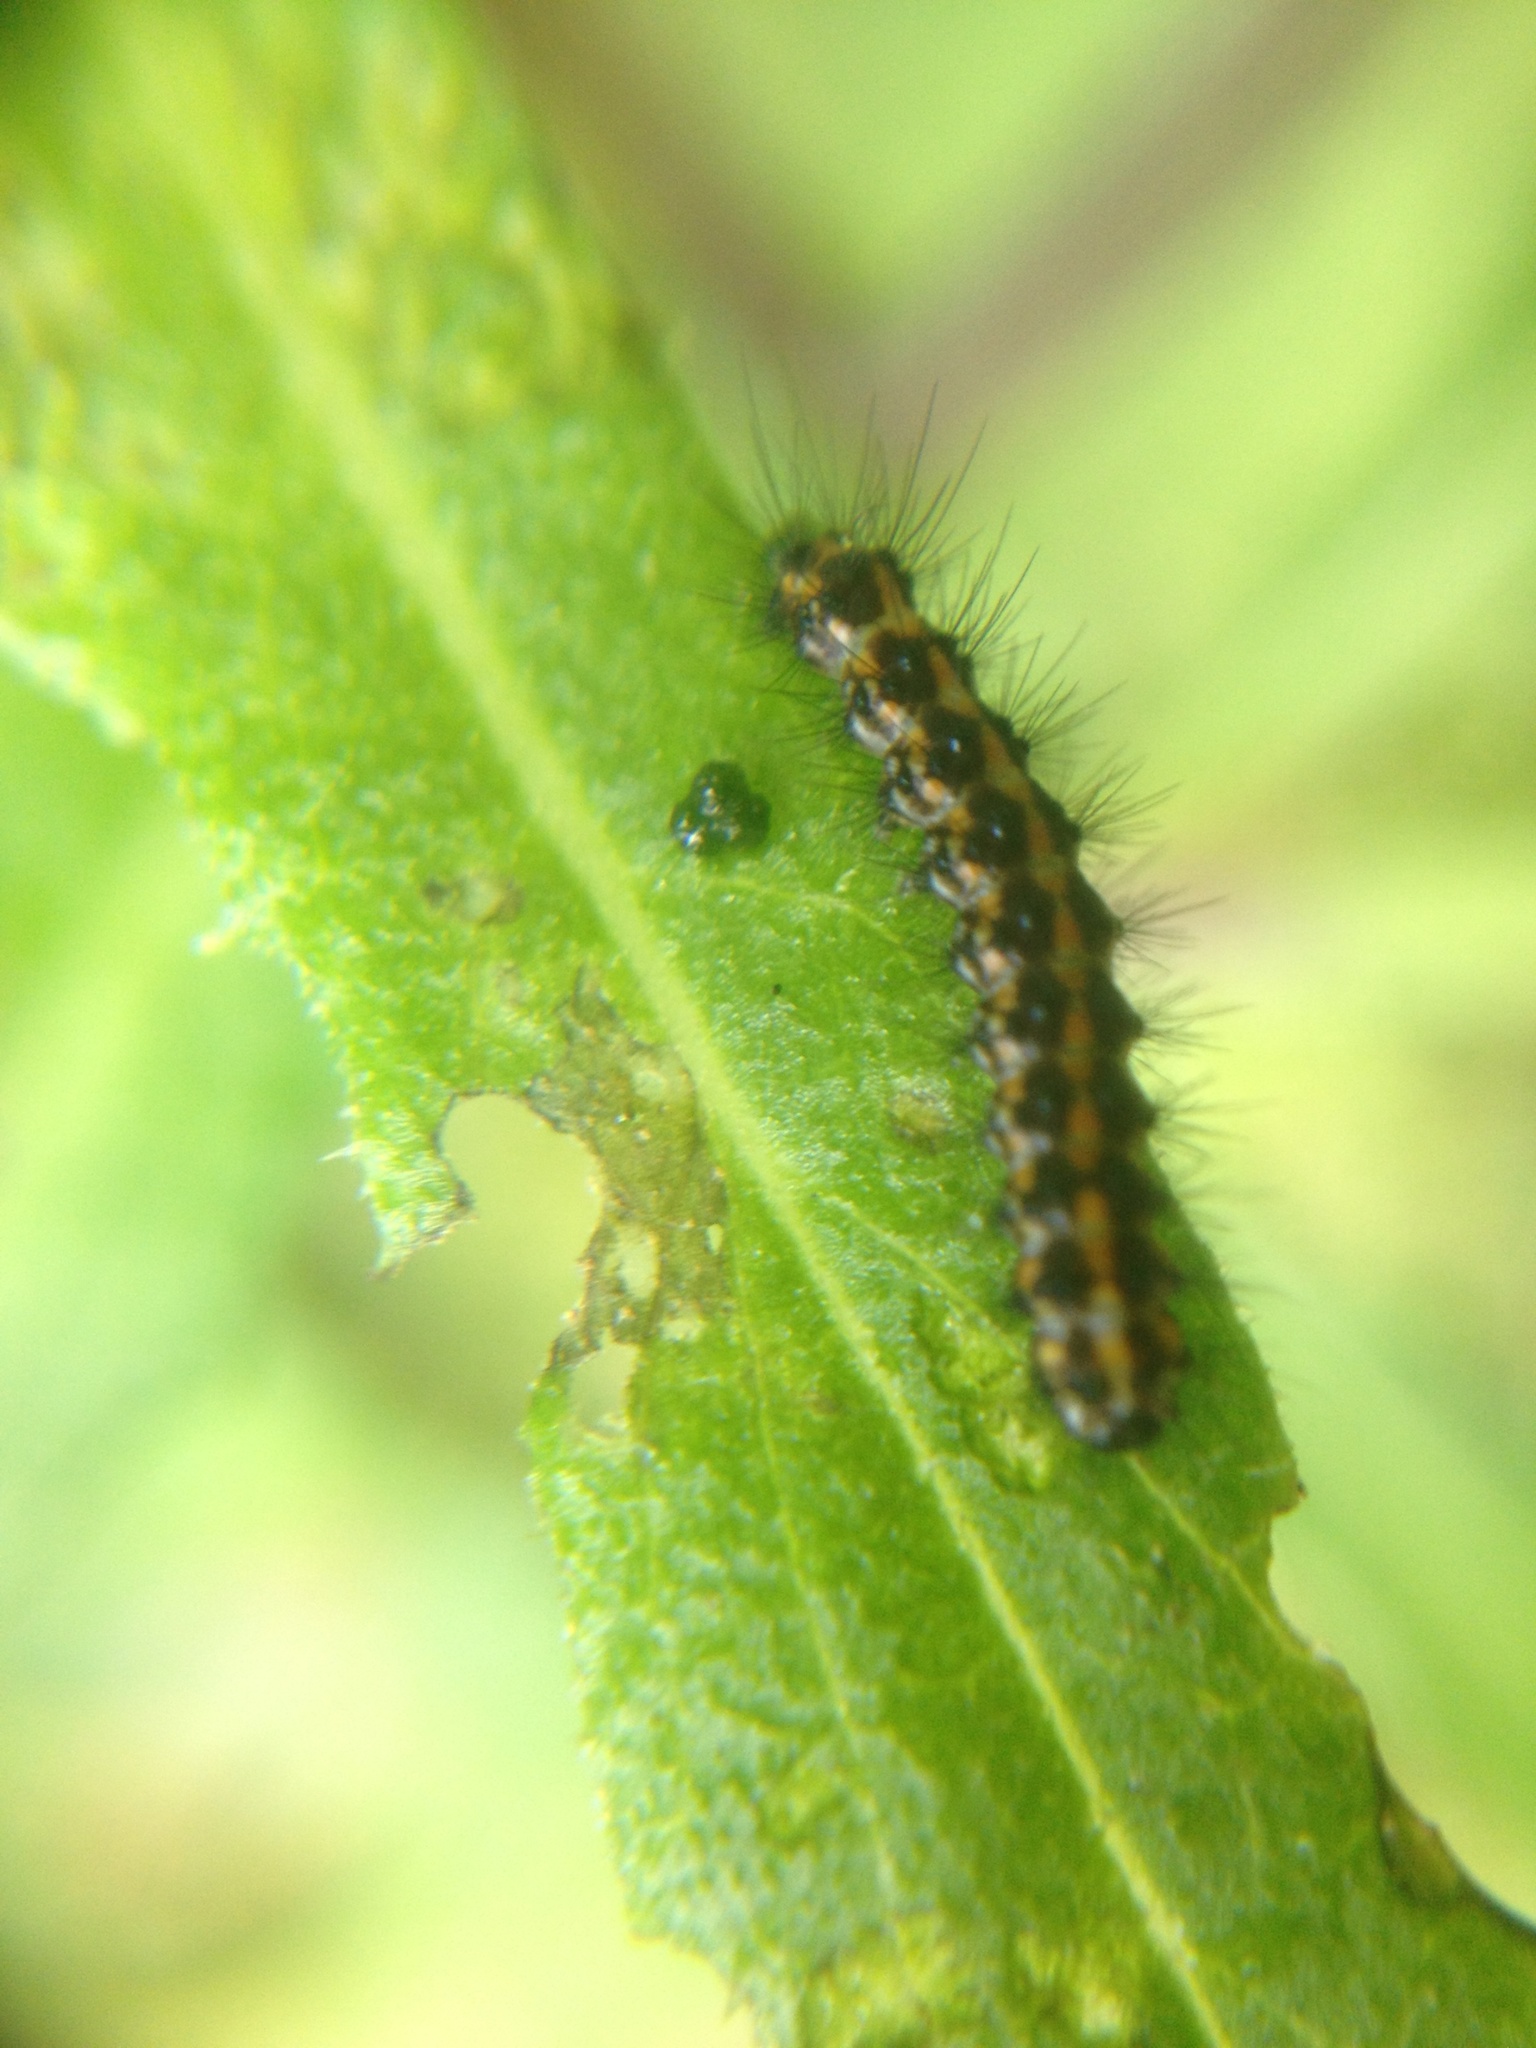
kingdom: Animalia
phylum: Arthropoda
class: Insecta
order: Lepidoptera
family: Erebidae
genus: Nyctemera
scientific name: Nyctemera annulatum
